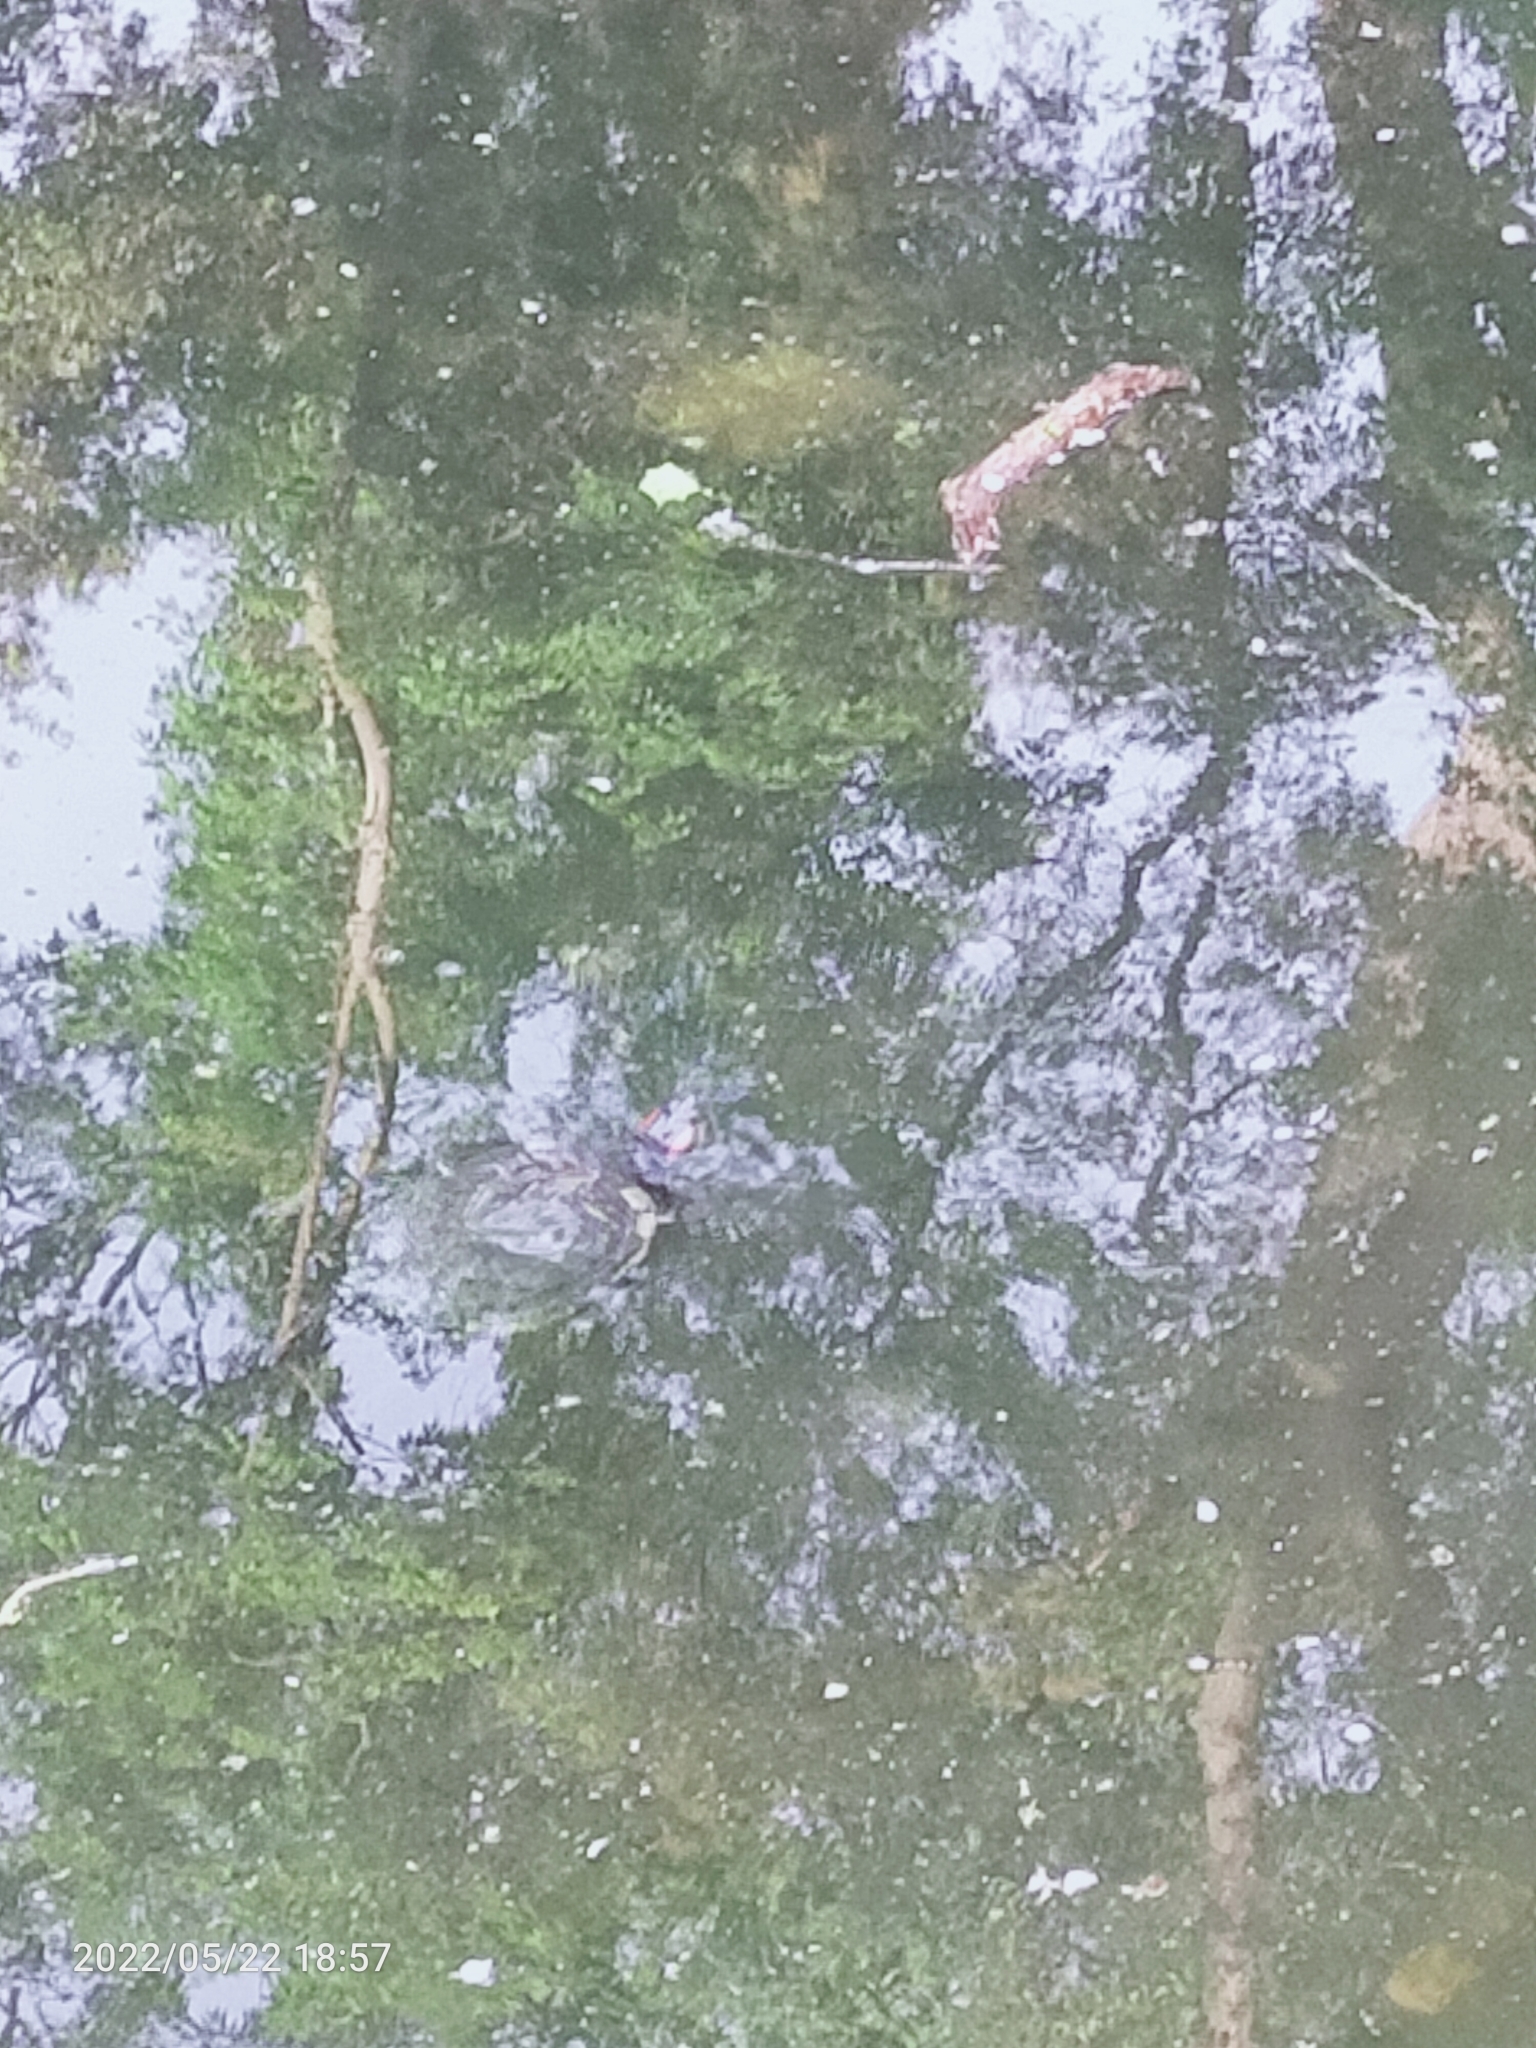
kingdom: Animalia
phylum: Chordata
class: Testudines
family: Emydidae
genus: Trachemys
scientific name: Trachemys scripta
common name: Slider
